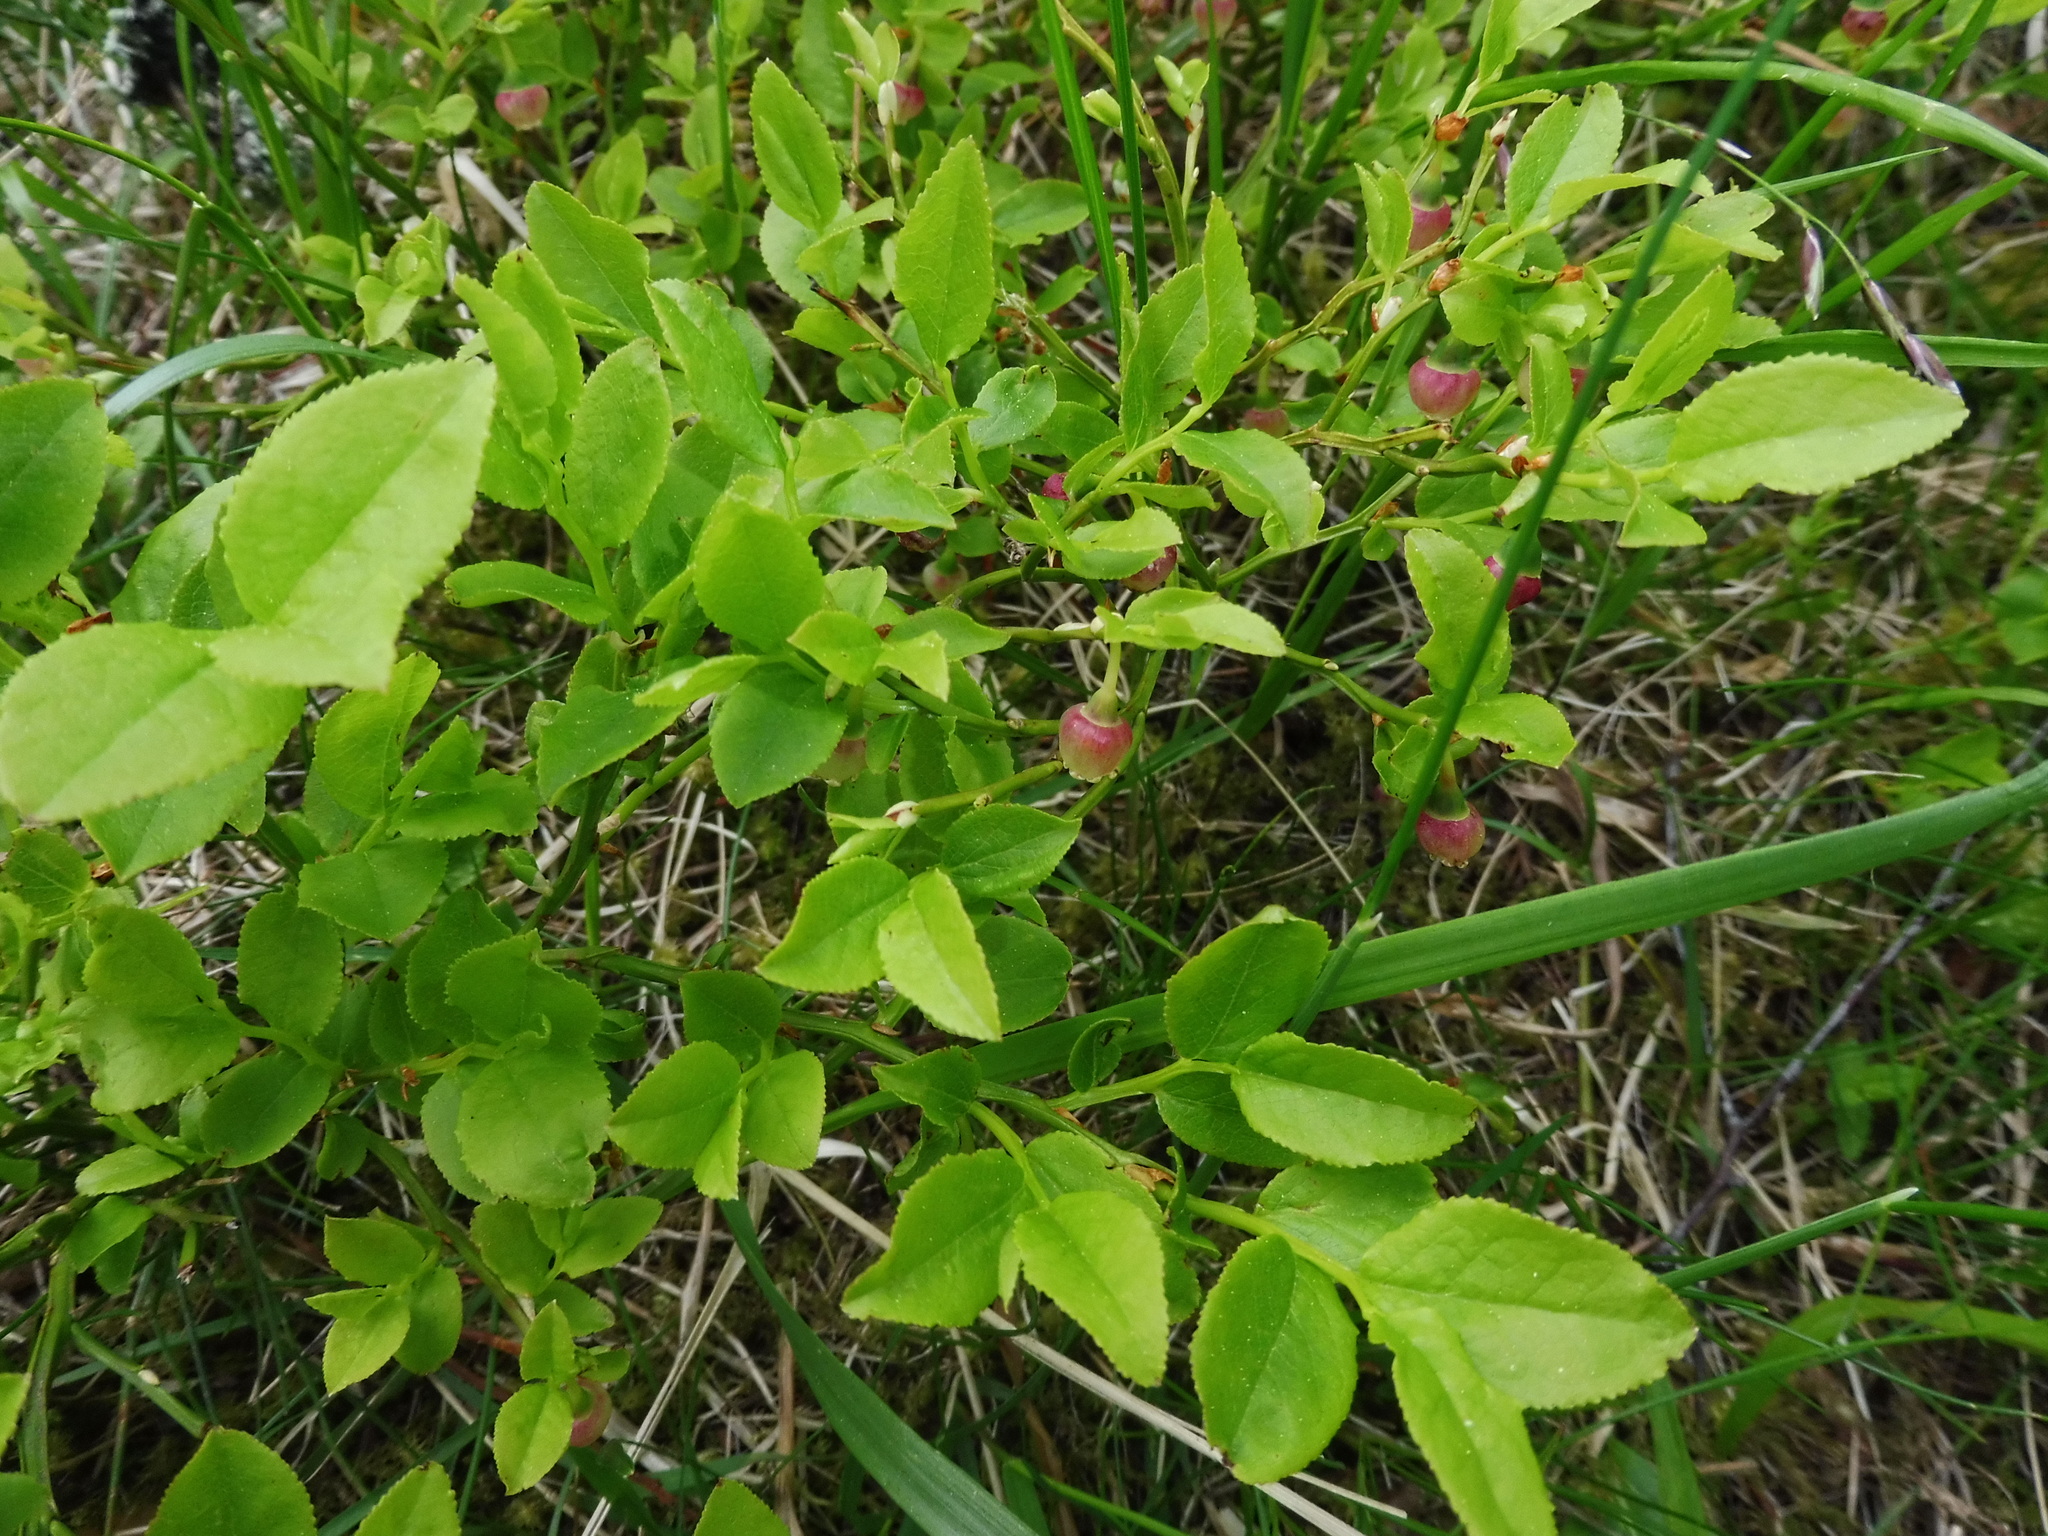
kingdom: Plantae
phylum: Tracheophyta
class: Magnoliopsida
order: Ericales
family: Ericaceae
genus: Vaccinium
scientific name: Vaccinium myrtillus
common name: Bilberry
